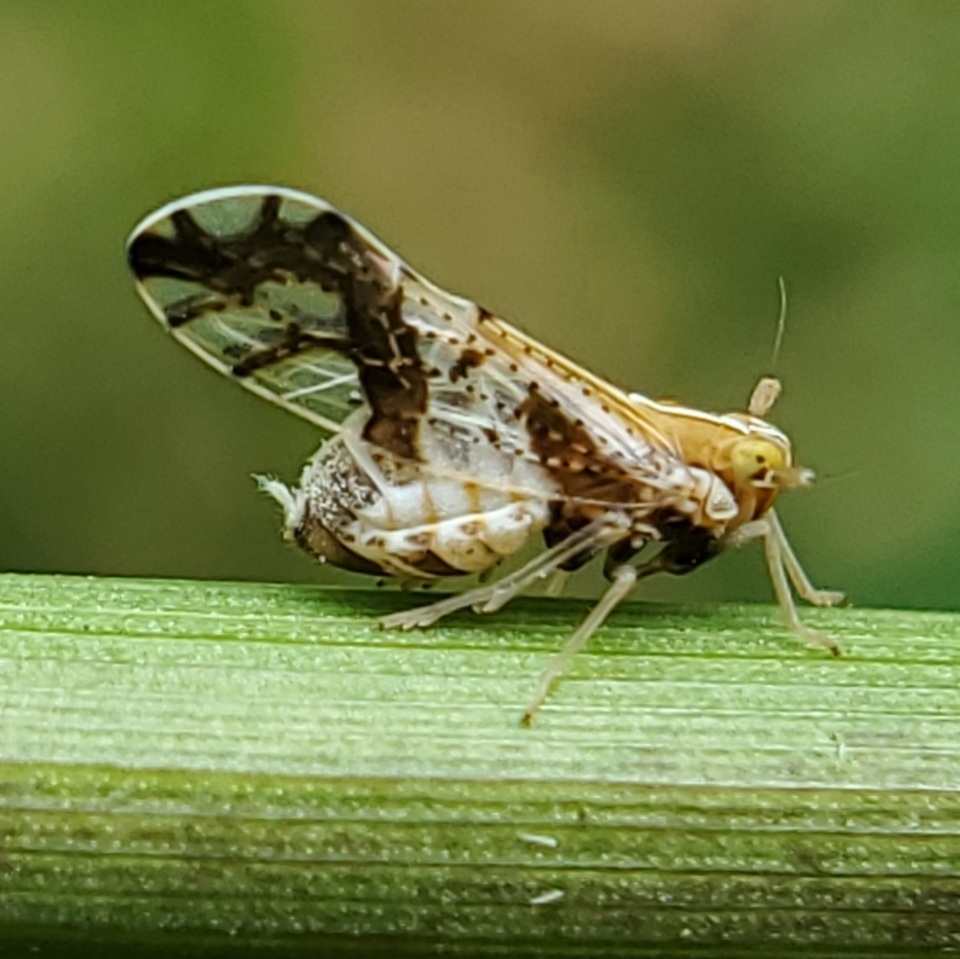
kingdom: Animalia
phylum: Arthropoda
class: Insecta
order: Hemiptera
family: Delphacidae
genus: Liburniella
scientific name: Liburniella ornata
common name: Ornate planthopper
